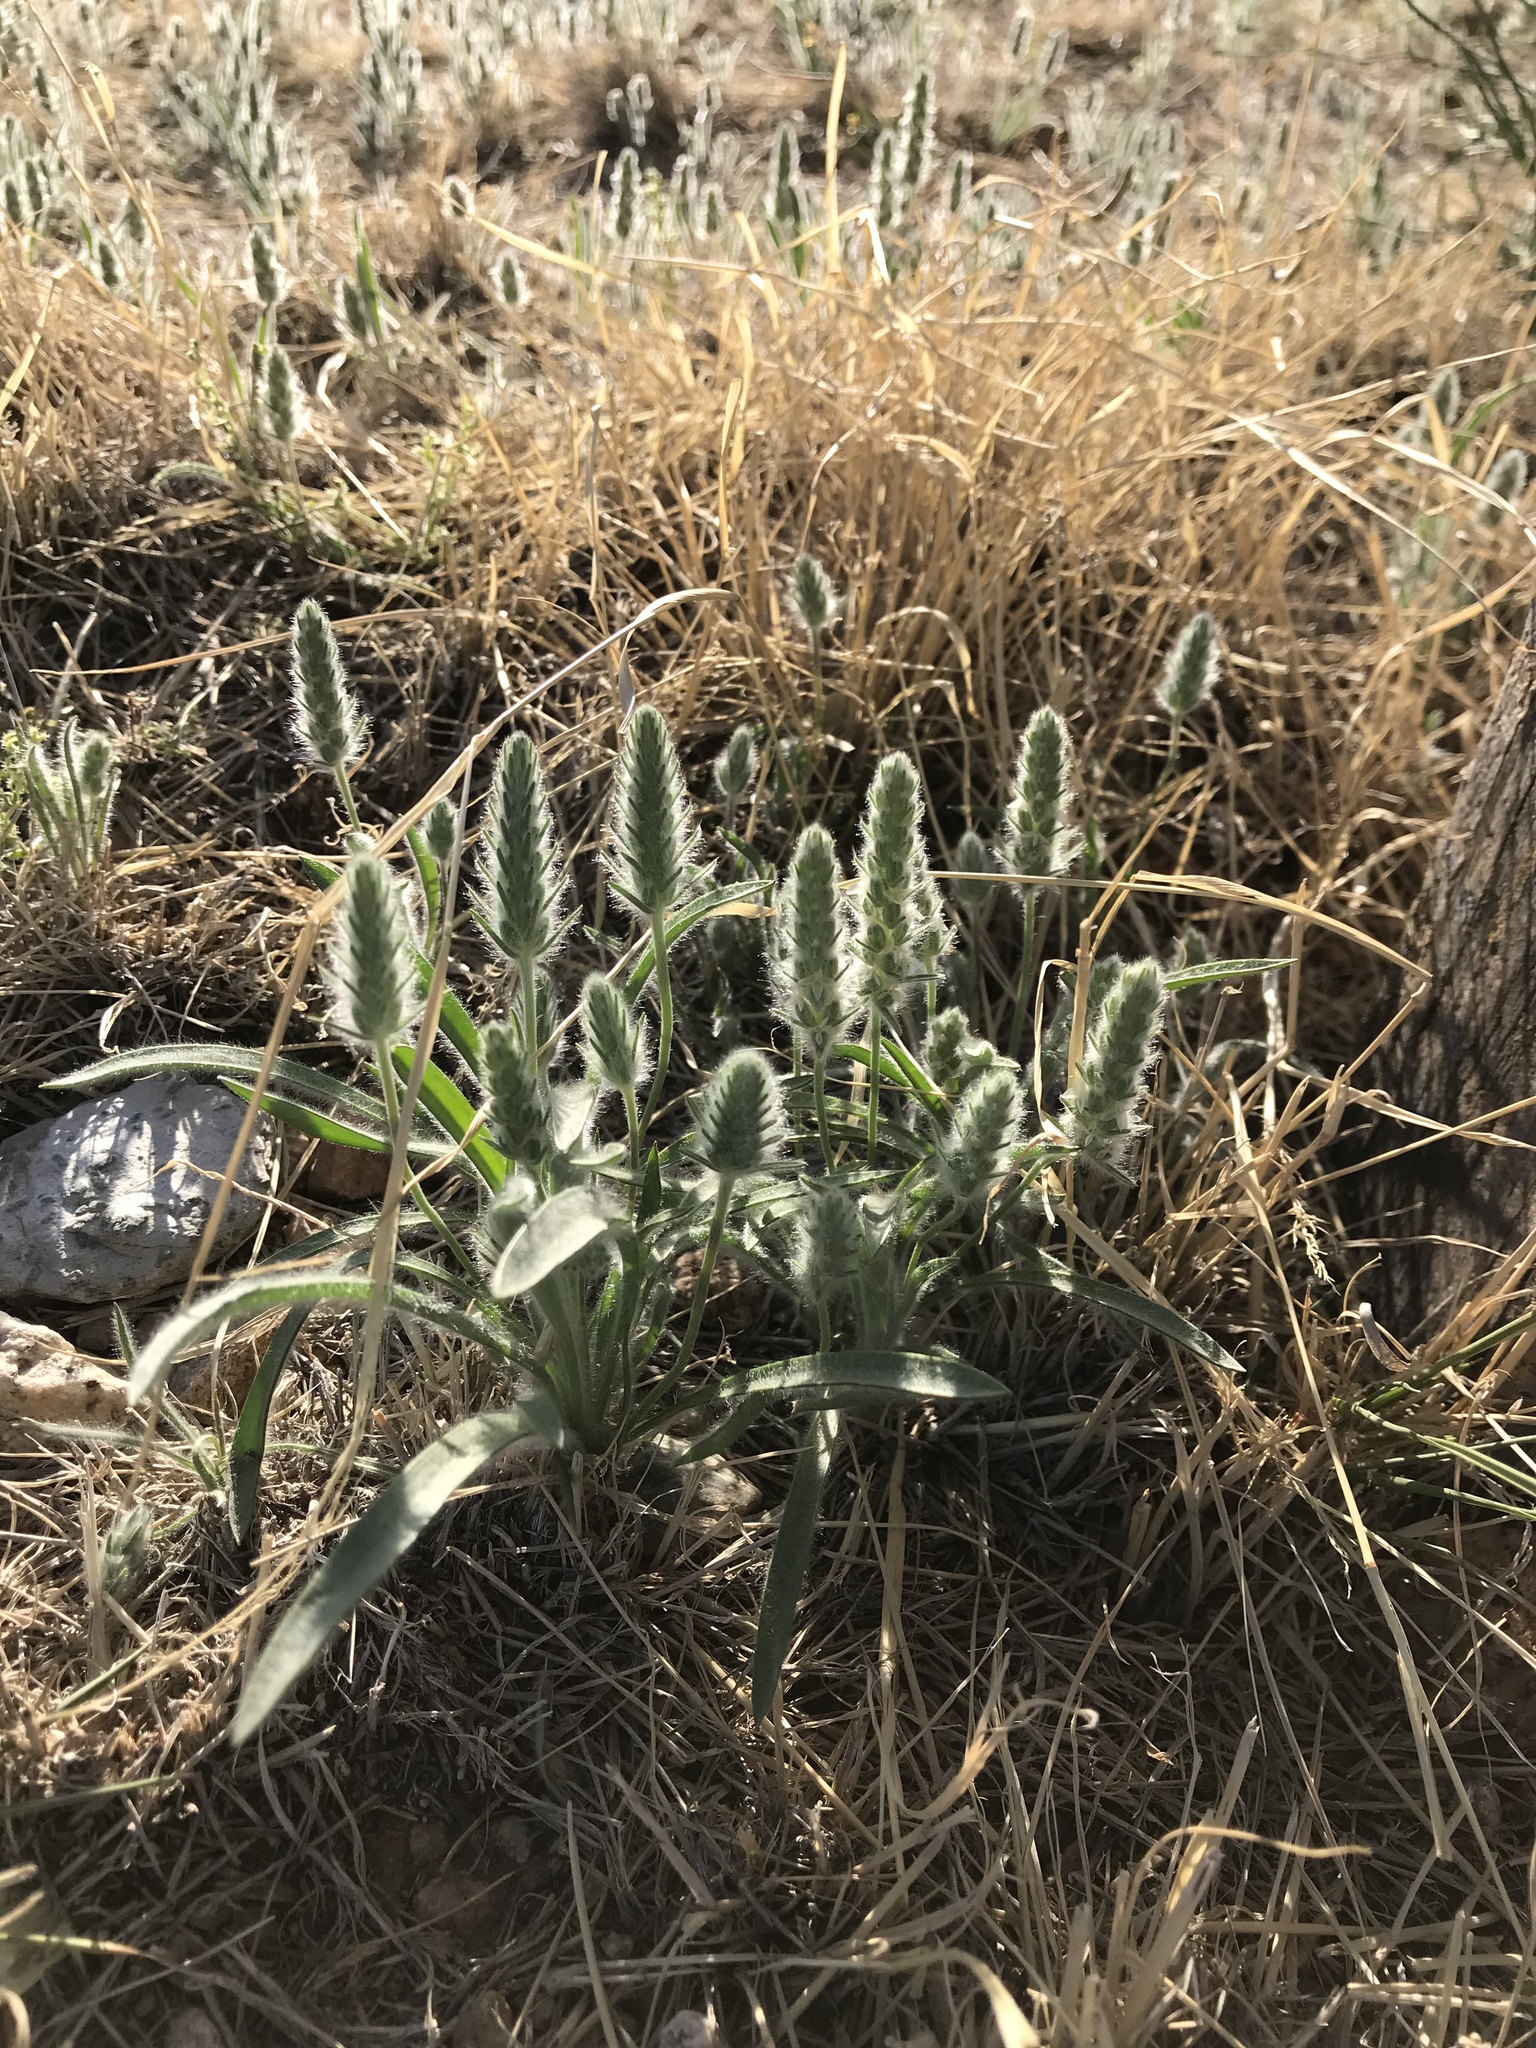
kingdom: Plantae
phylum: Tracheophyta
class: Magnoliopsida
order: Lamiales
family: Plantaginaceae
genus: Plantago
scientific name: Plantago patagonica
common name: Patagonia indian-wheat
